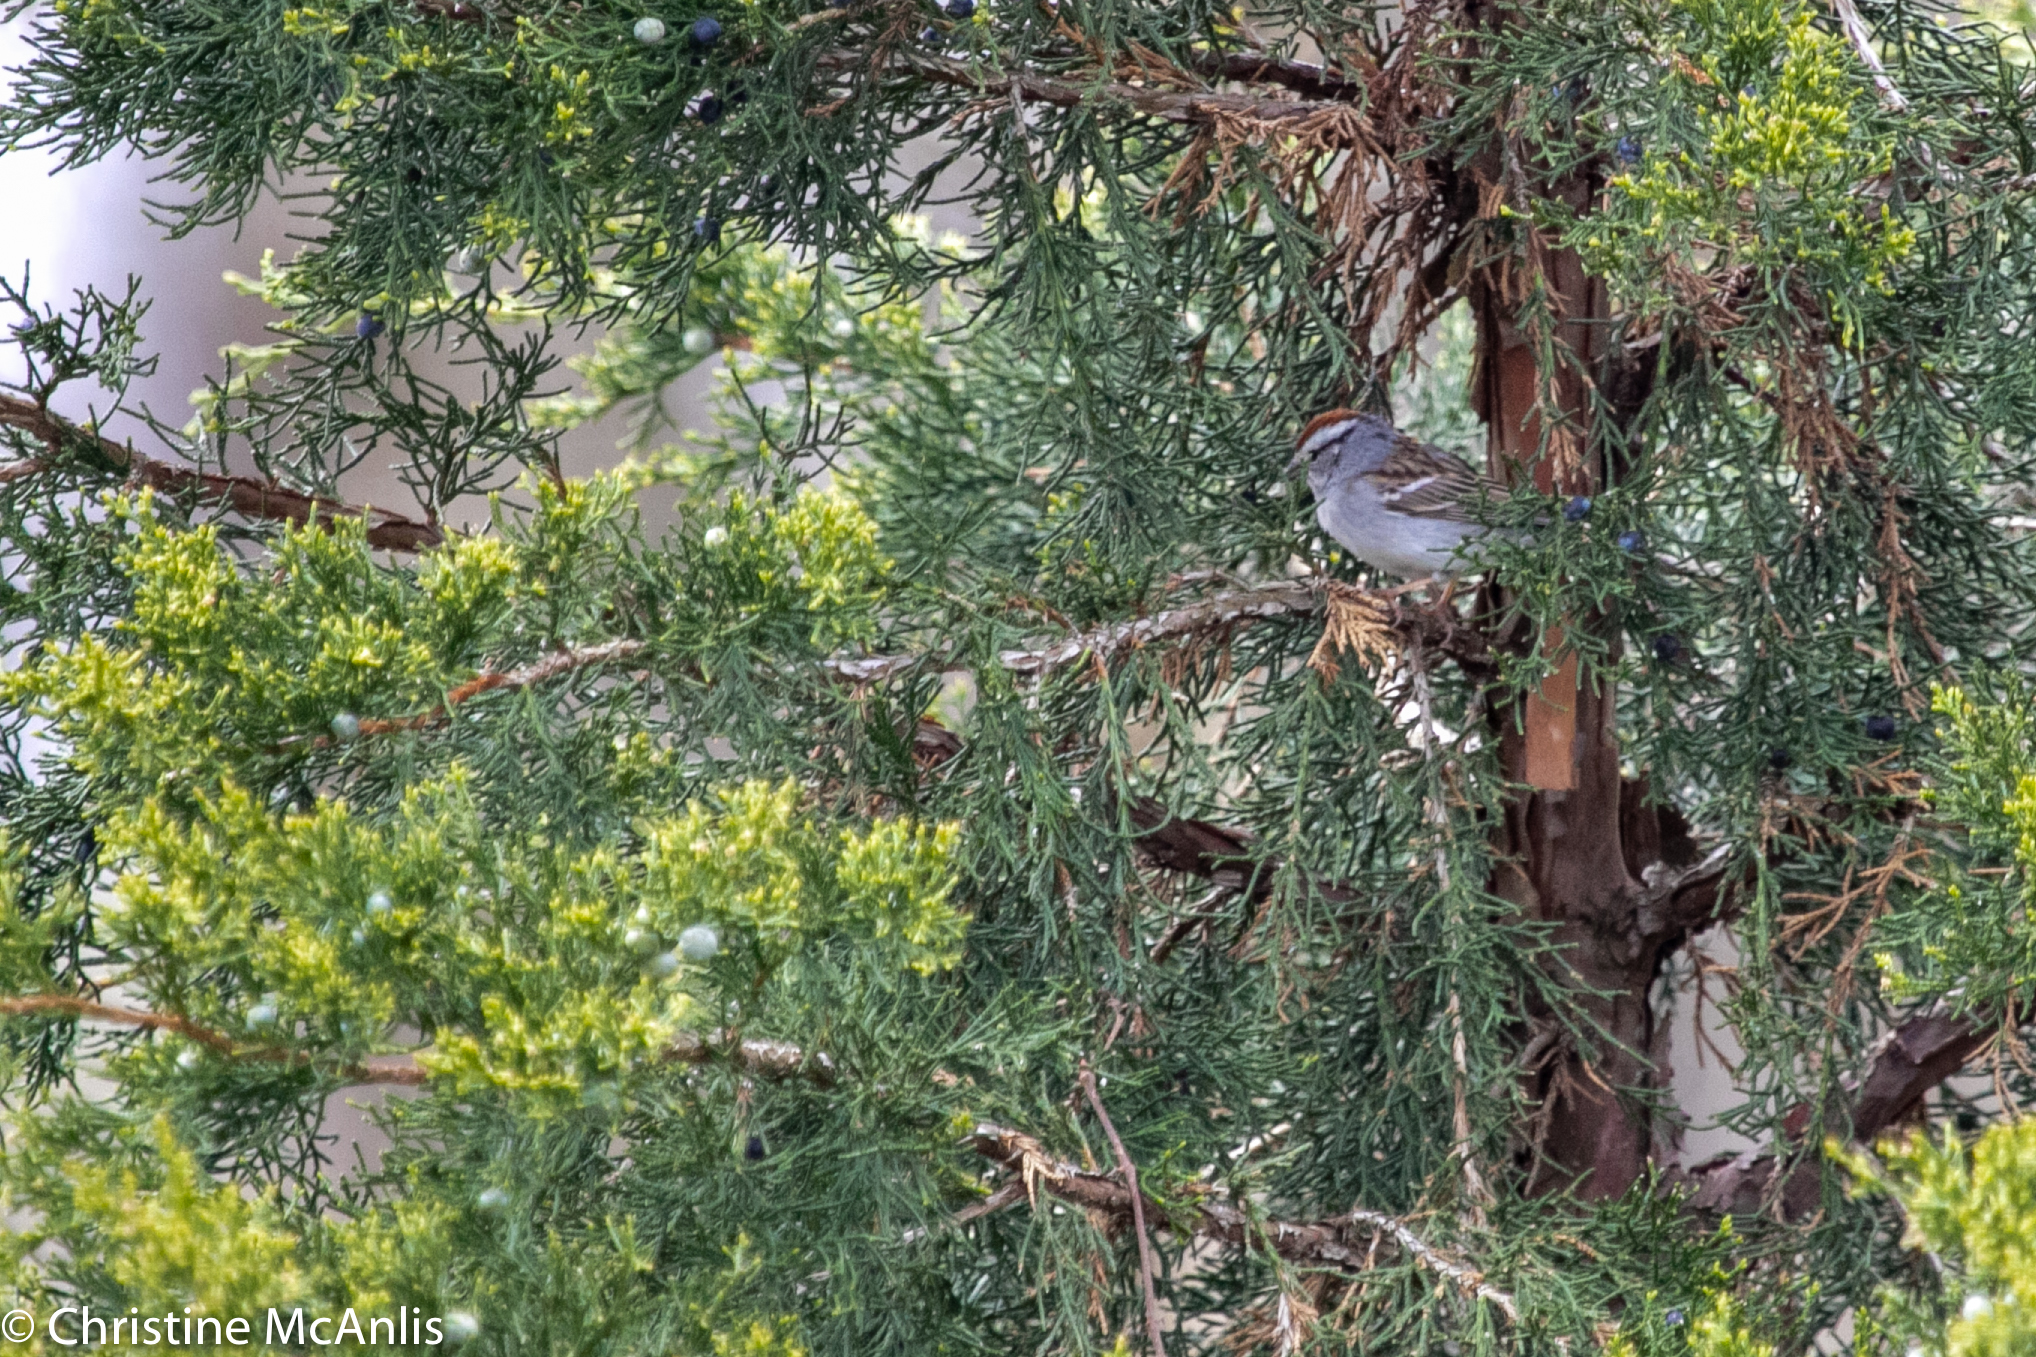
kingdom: Animalia
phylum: Chordata
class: Aves
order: Passeriformes
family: Passerellidae
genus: Spizella
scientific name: Spizella passerina
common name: Chipping sparrow
